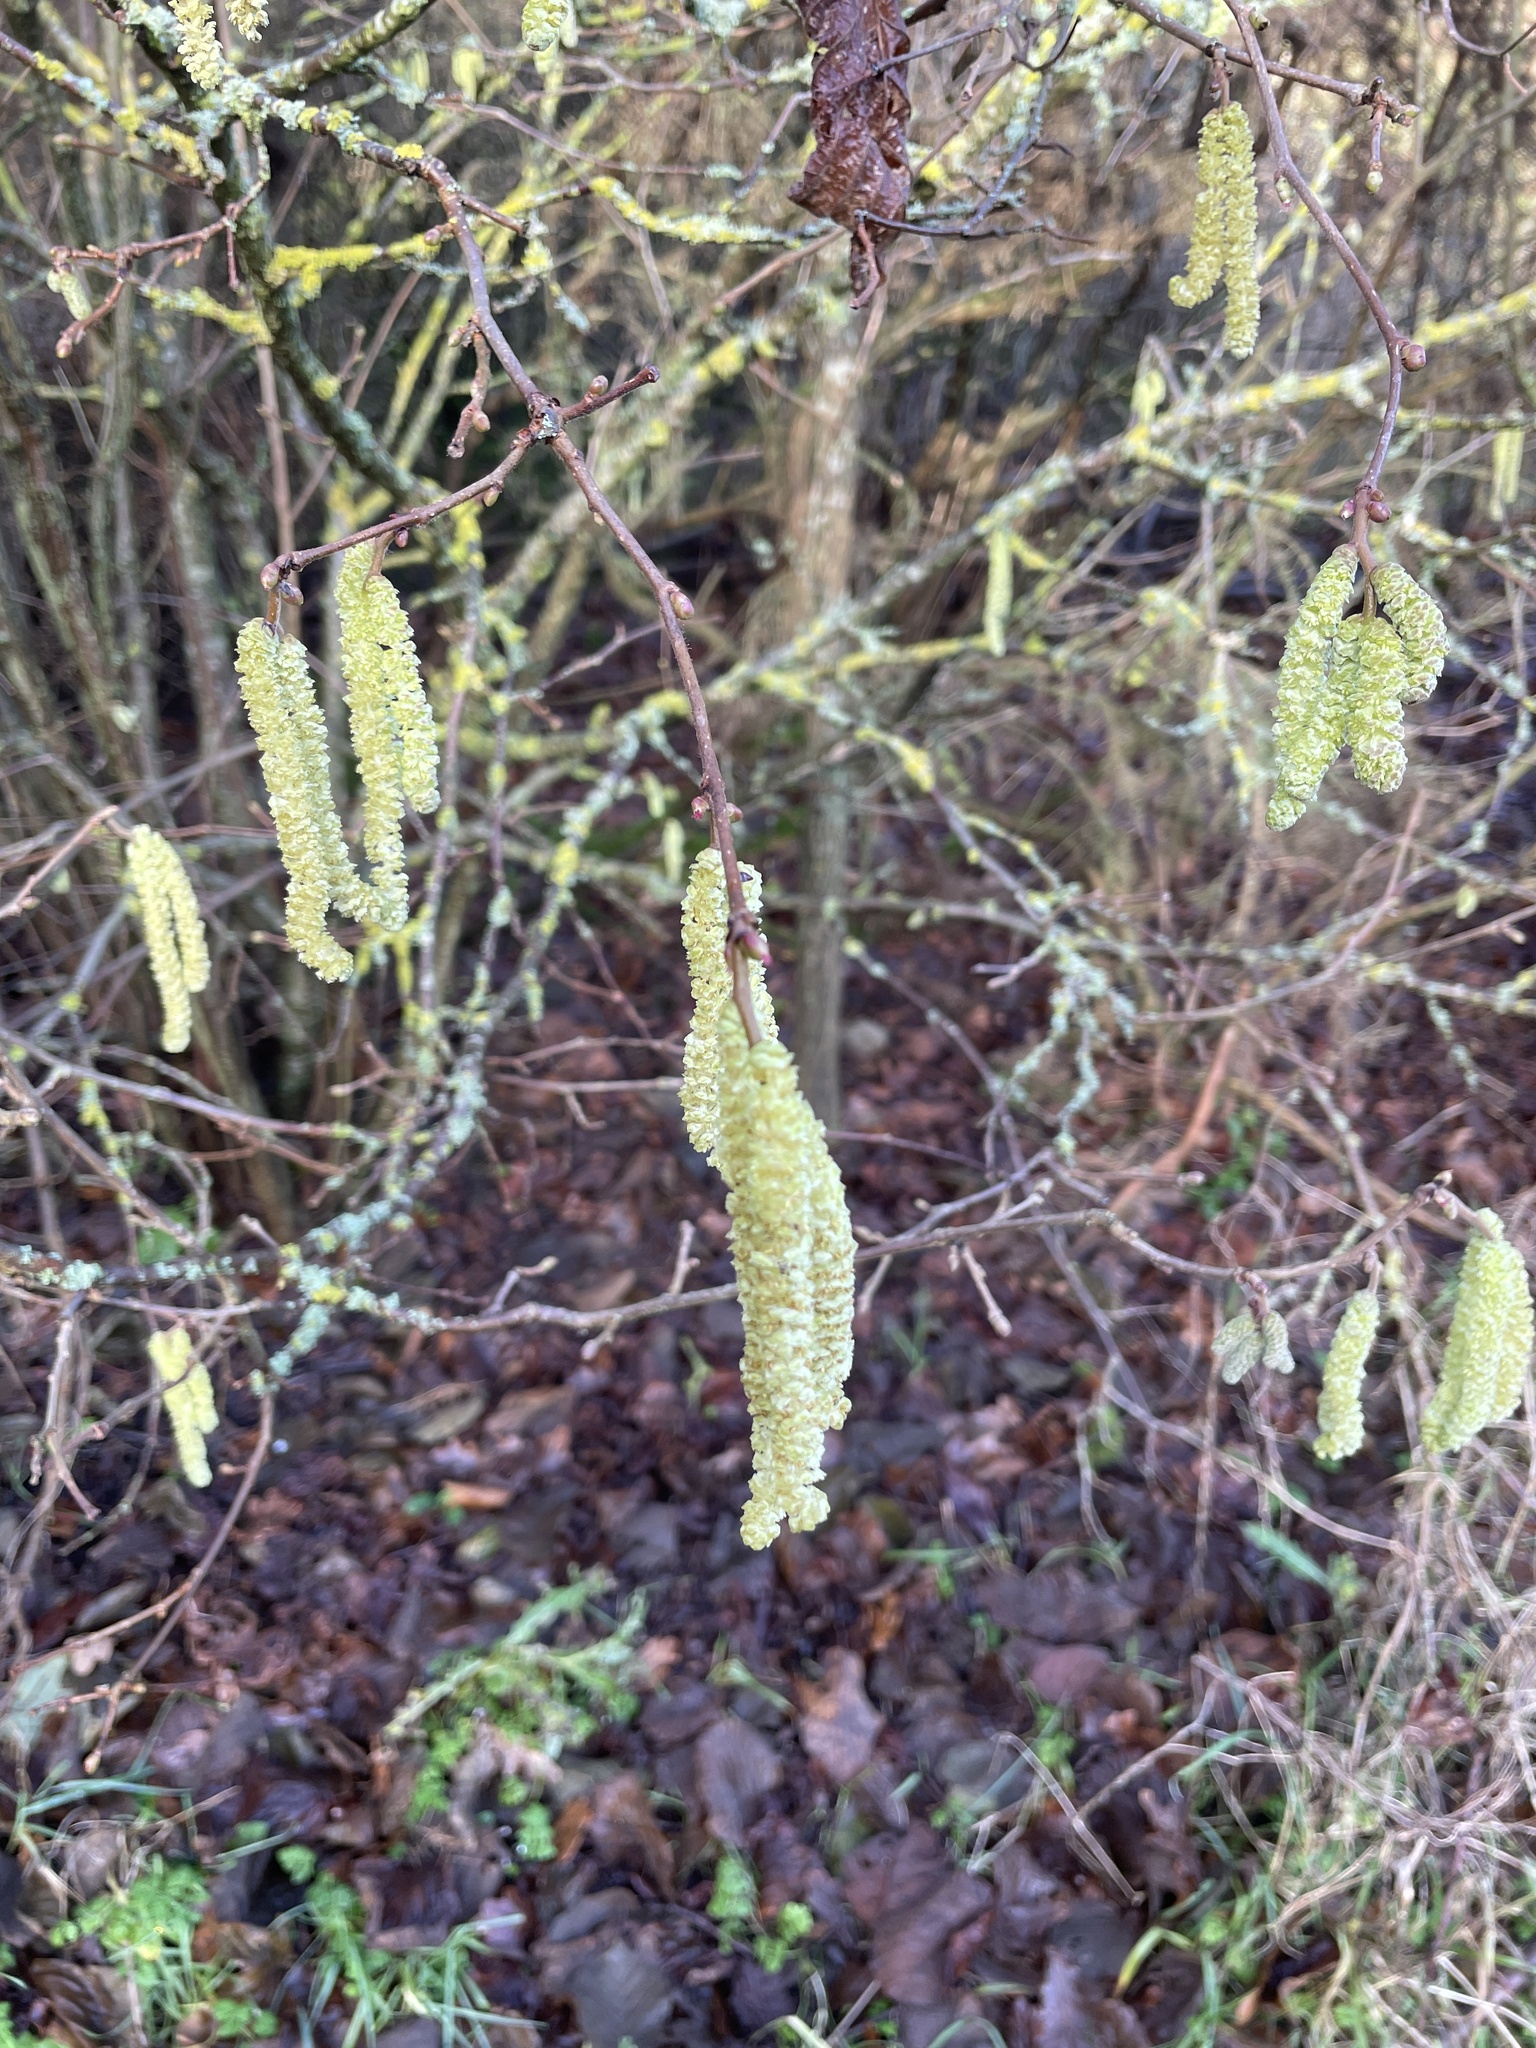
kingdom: Plantae
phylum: Tracheophyta
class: Magnoliopsida
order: Fagales
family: Betulaceae
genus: Corylus
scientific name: Corylus avellana
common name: European hazel
